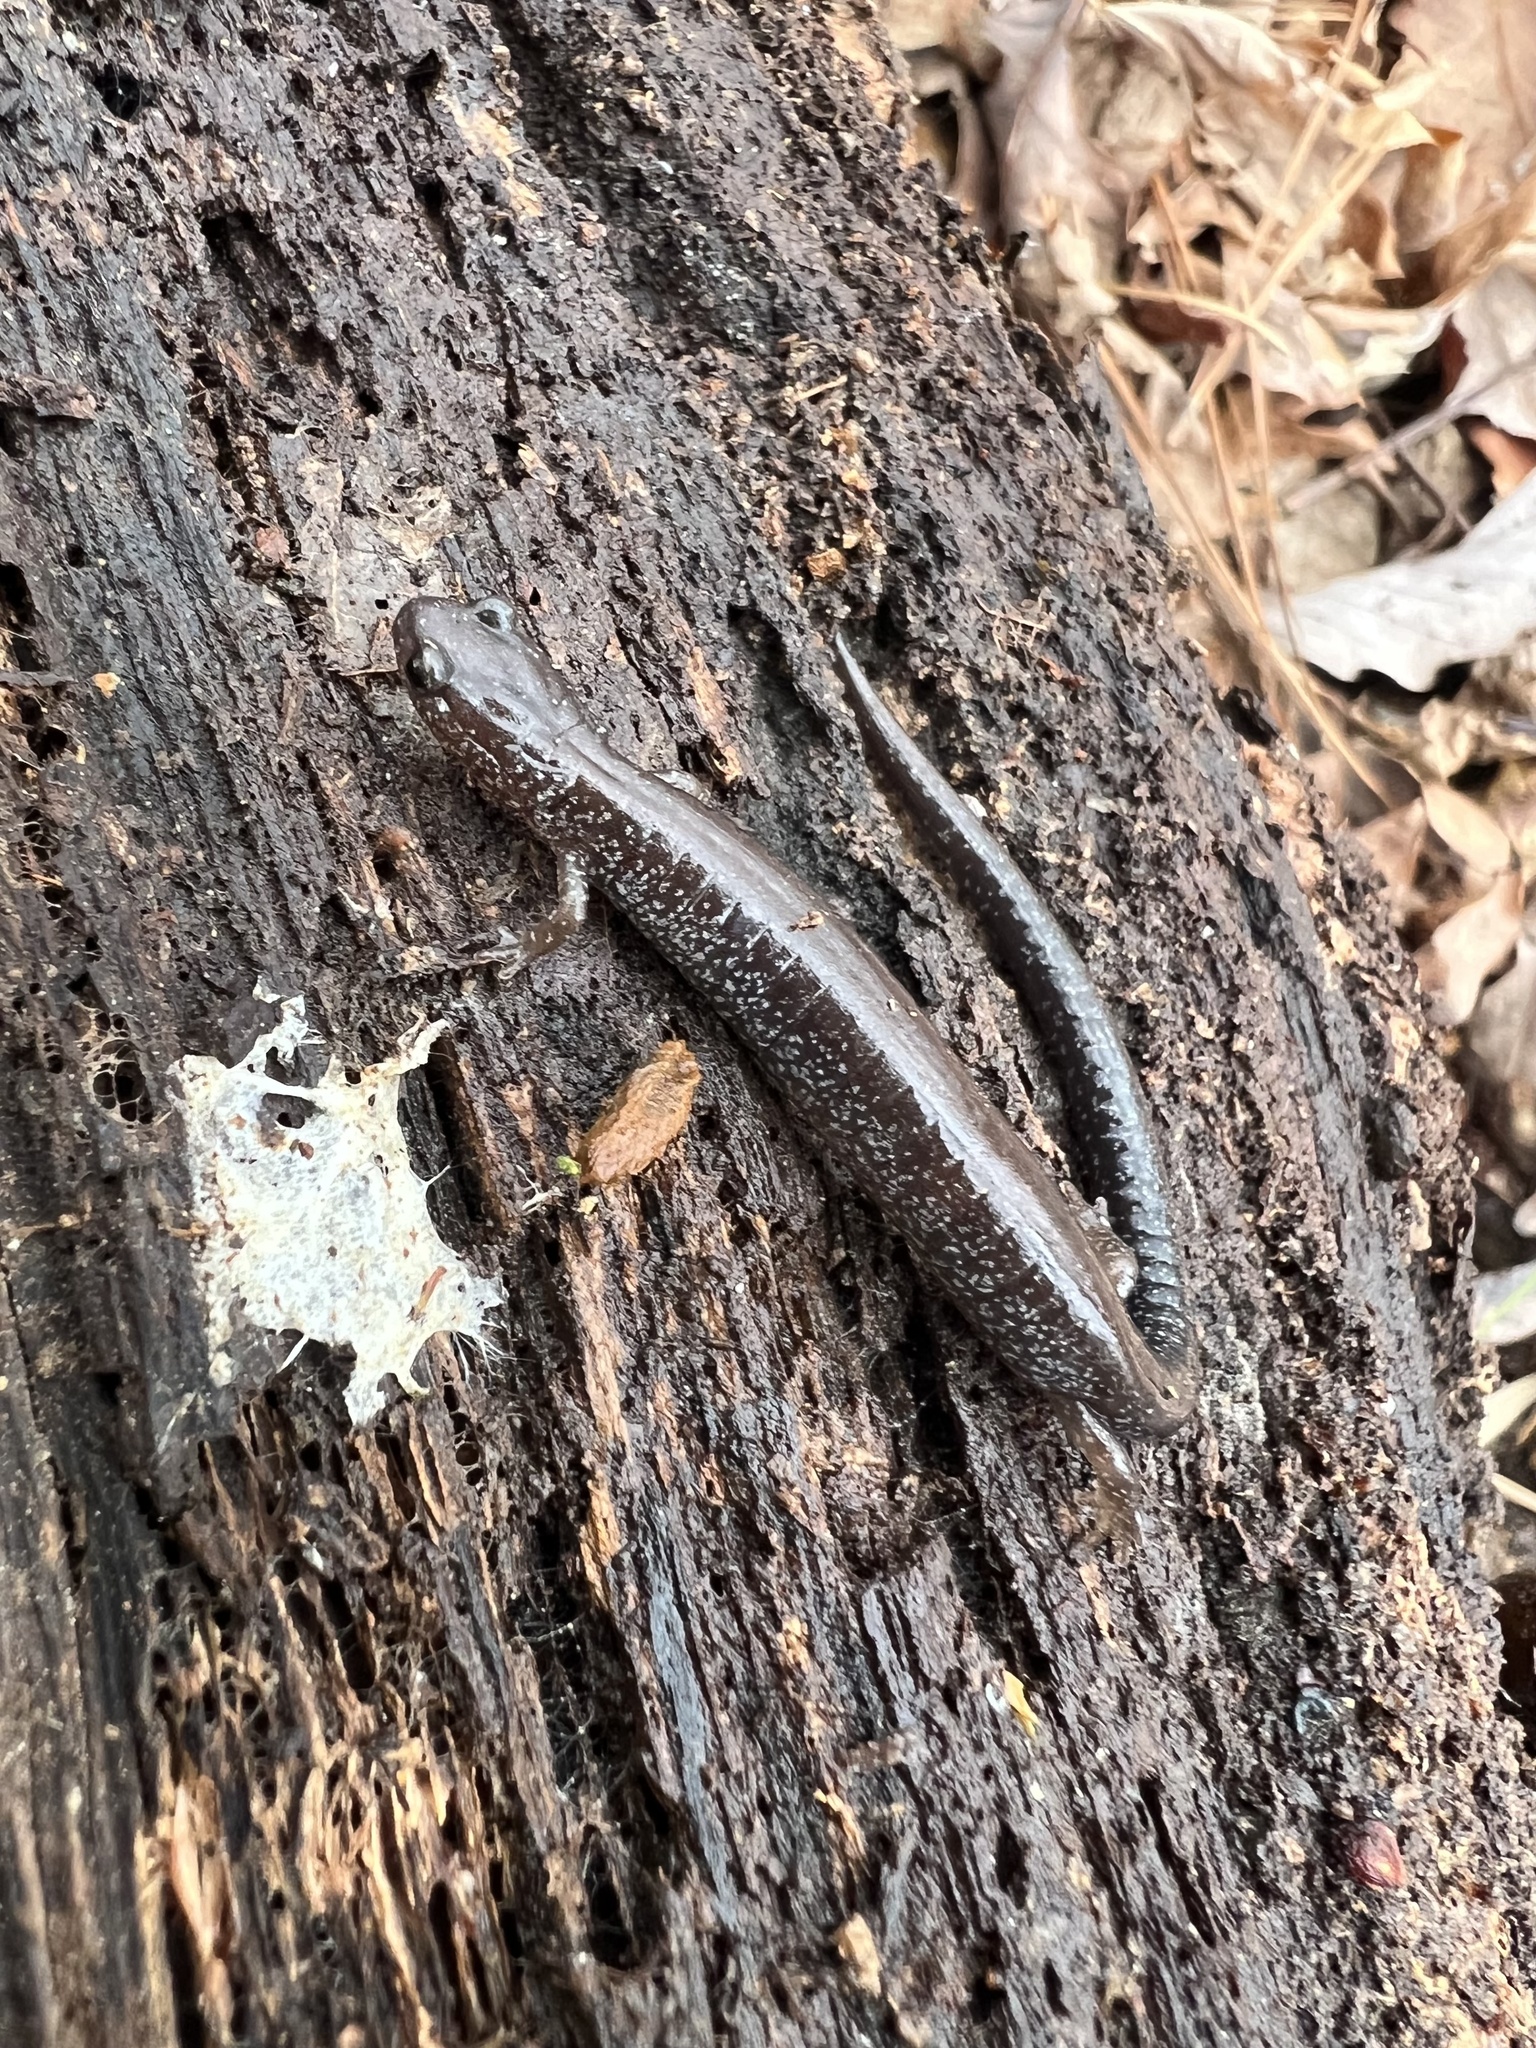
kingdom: Animalia
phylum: Chordata
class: Amphibia
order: Caudata
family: Plethodontidae
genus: Plethodon
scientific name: Plethodon cinereus
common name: Redback salamander
